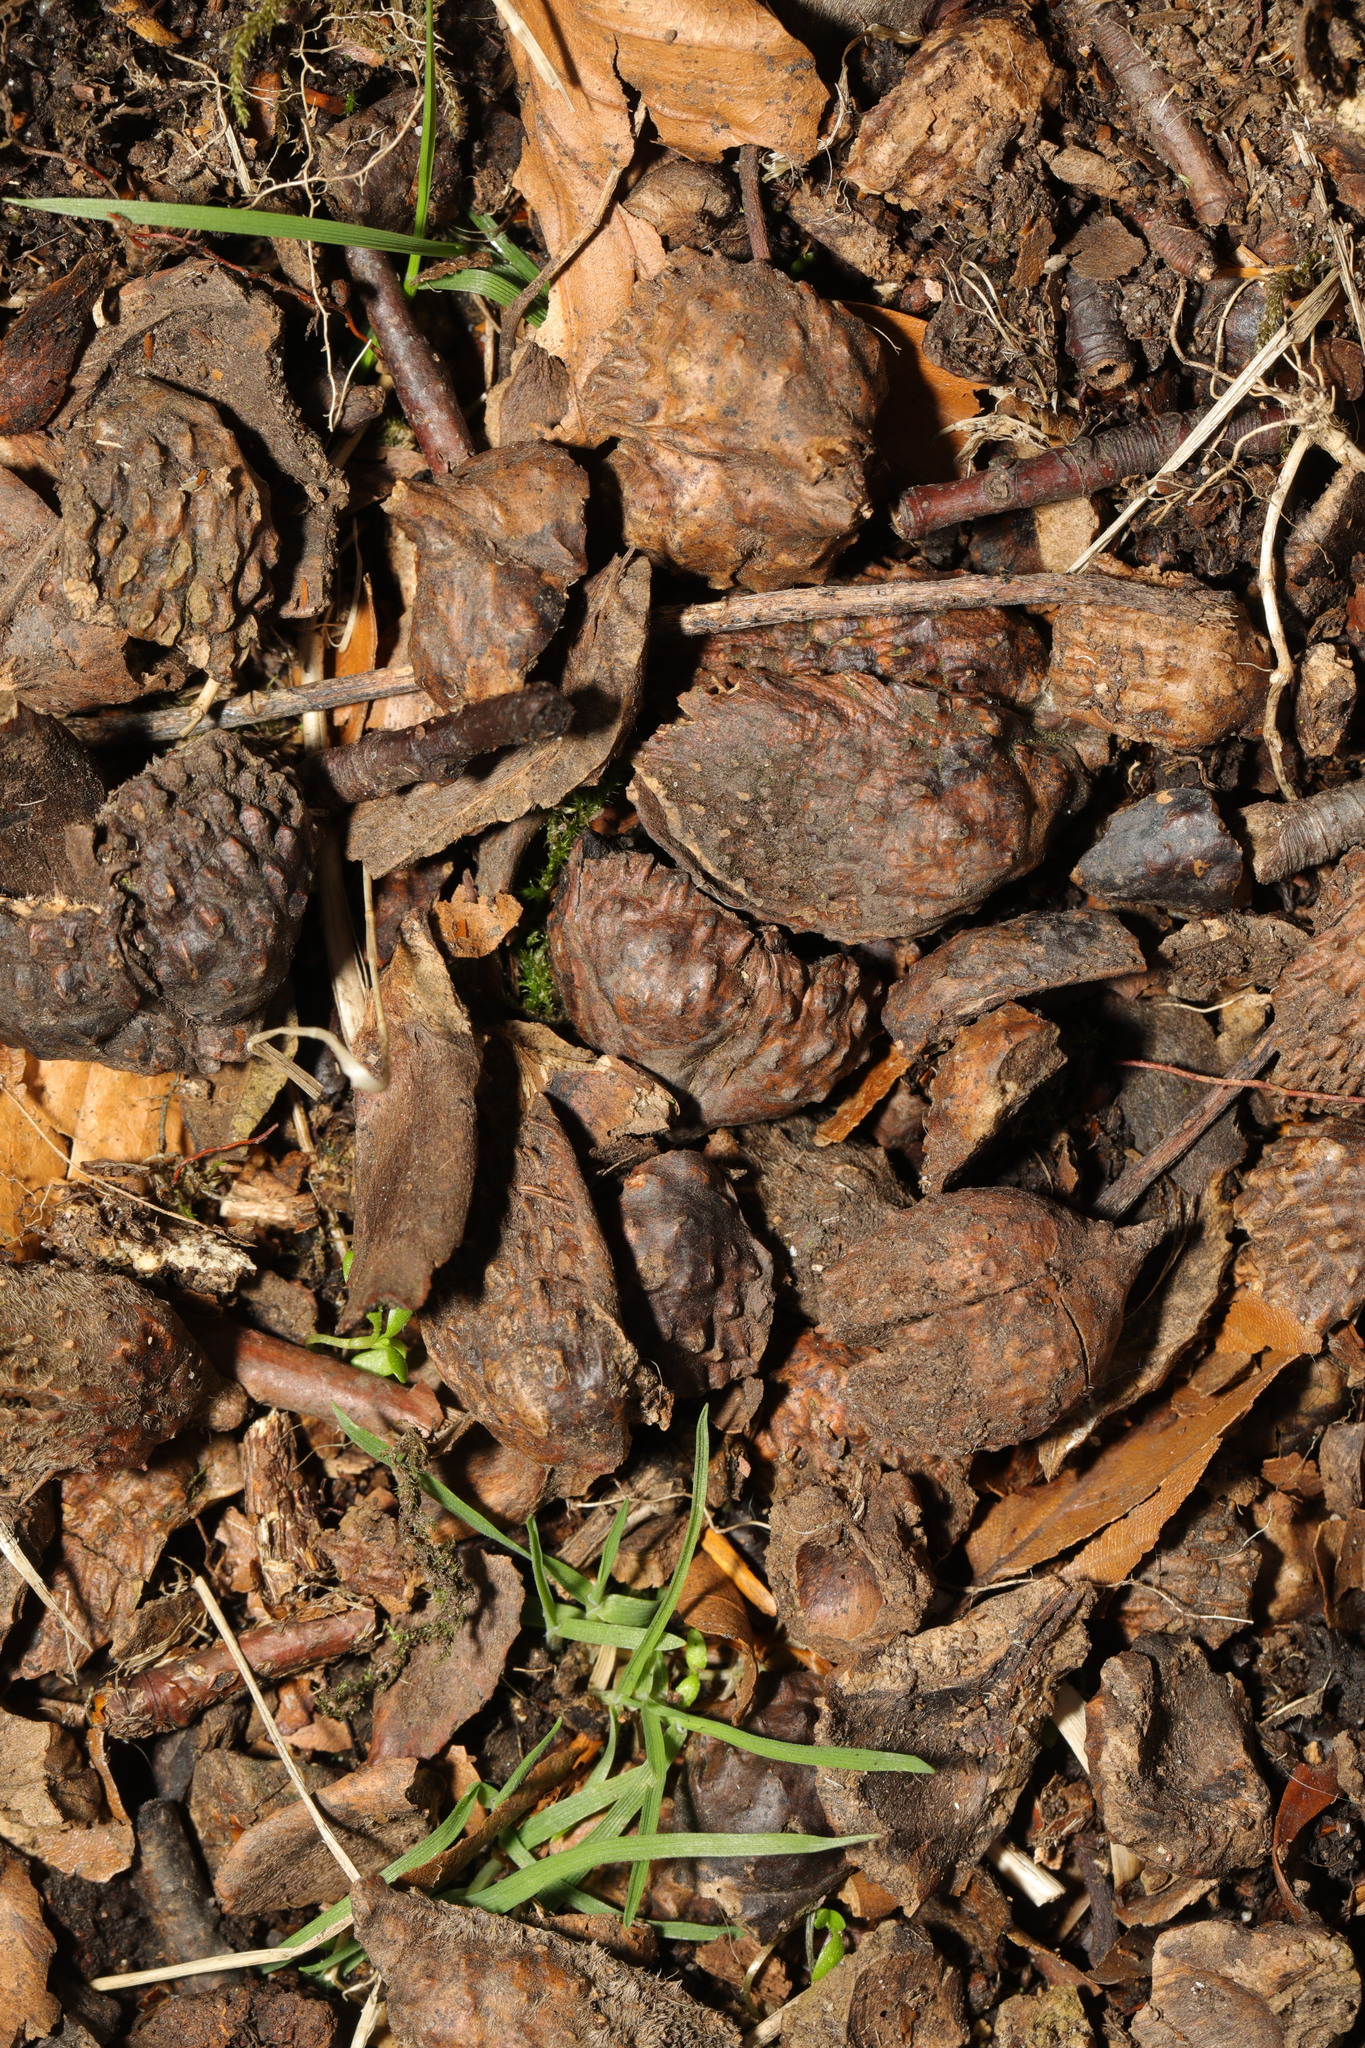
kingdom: Plantae
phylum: Tracheophyta
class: Magnoliopsida
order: Fagales
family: Fagaceae
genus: Fagus
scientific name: Fagus sylvatica
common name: Beech
